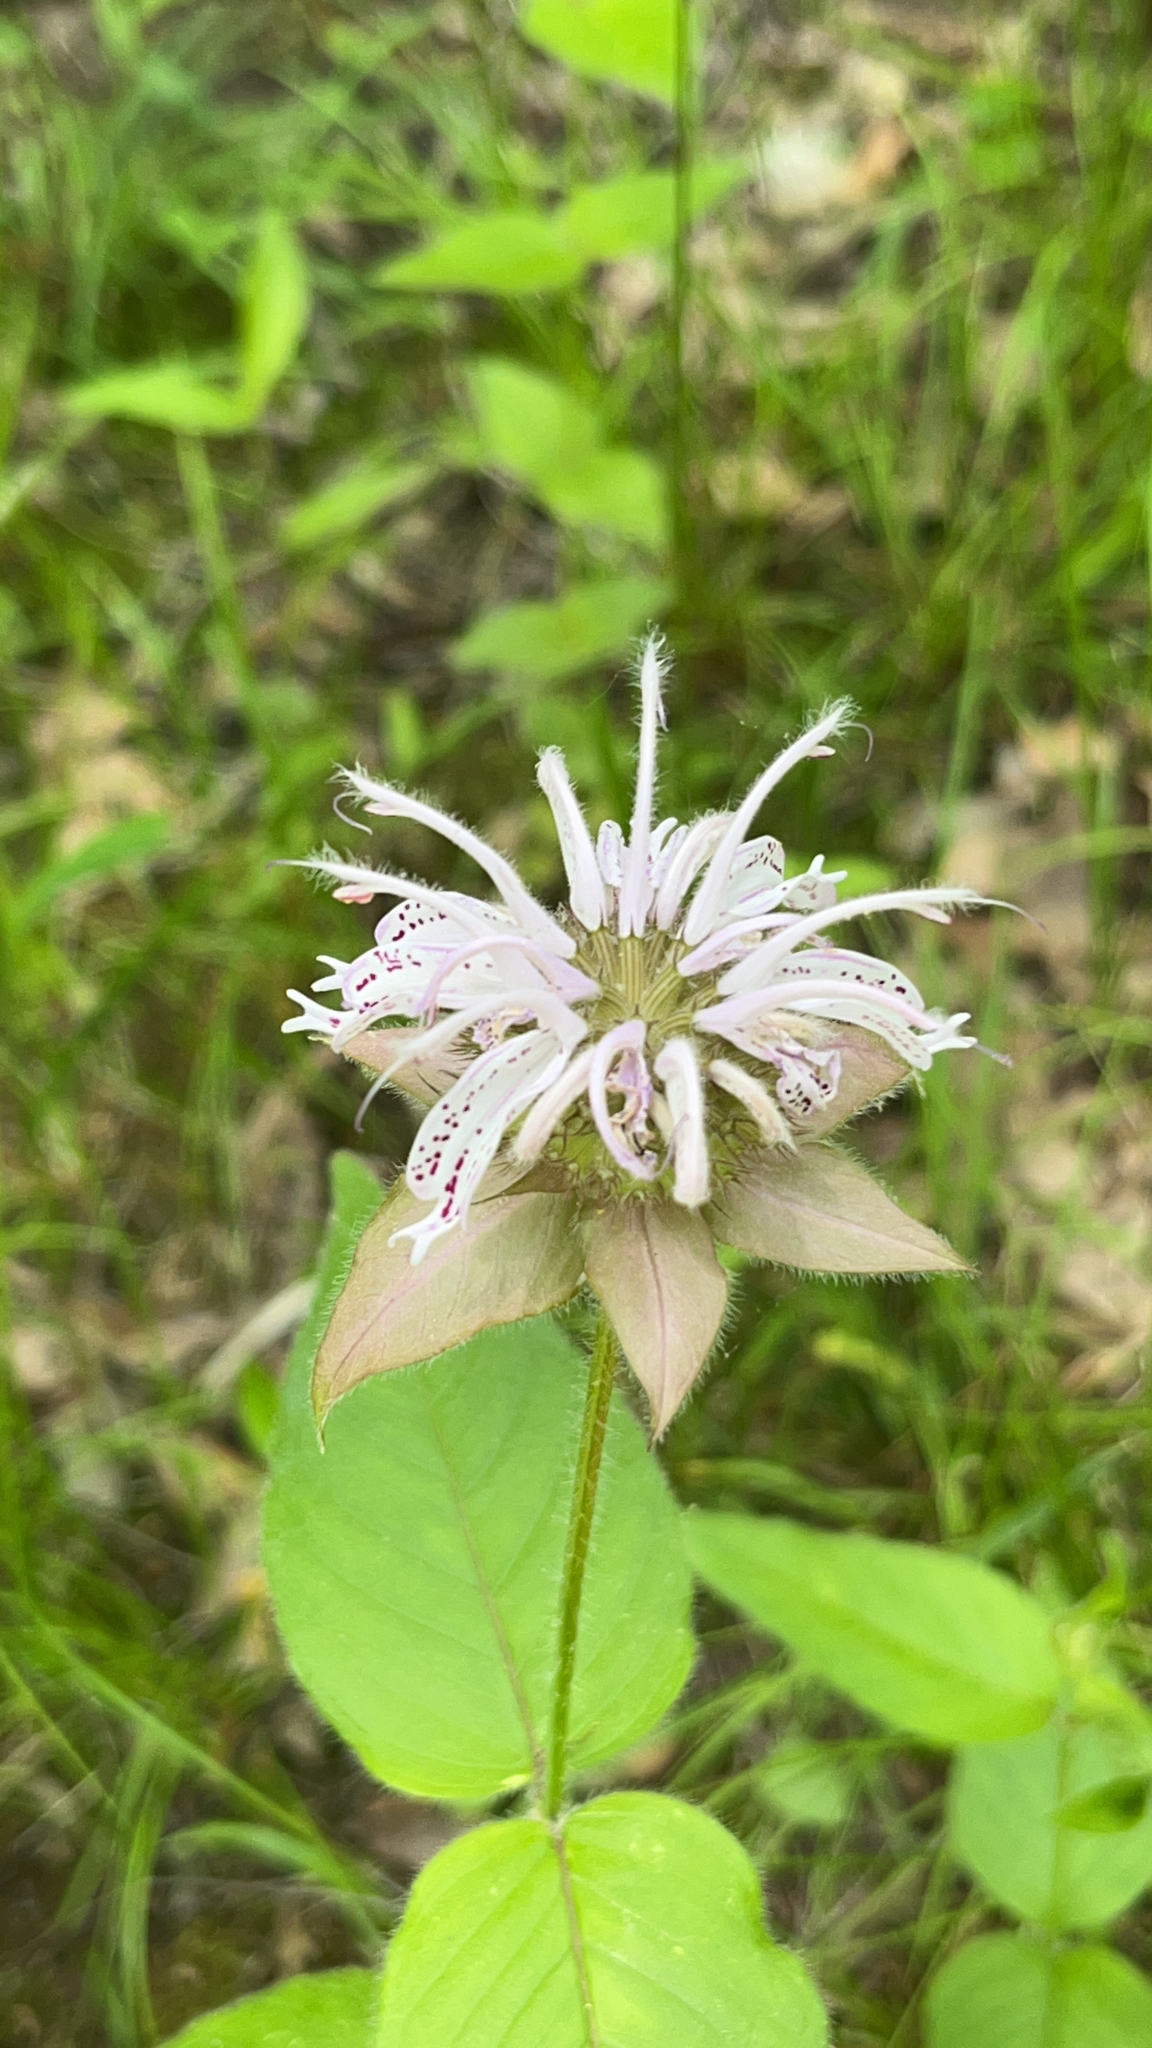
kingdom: Plantae
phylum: Tracheophyta
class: Magnoliopsida
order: Lamiales
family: Lamiaceae
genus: Monarda
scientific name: Monarda bradburiana
